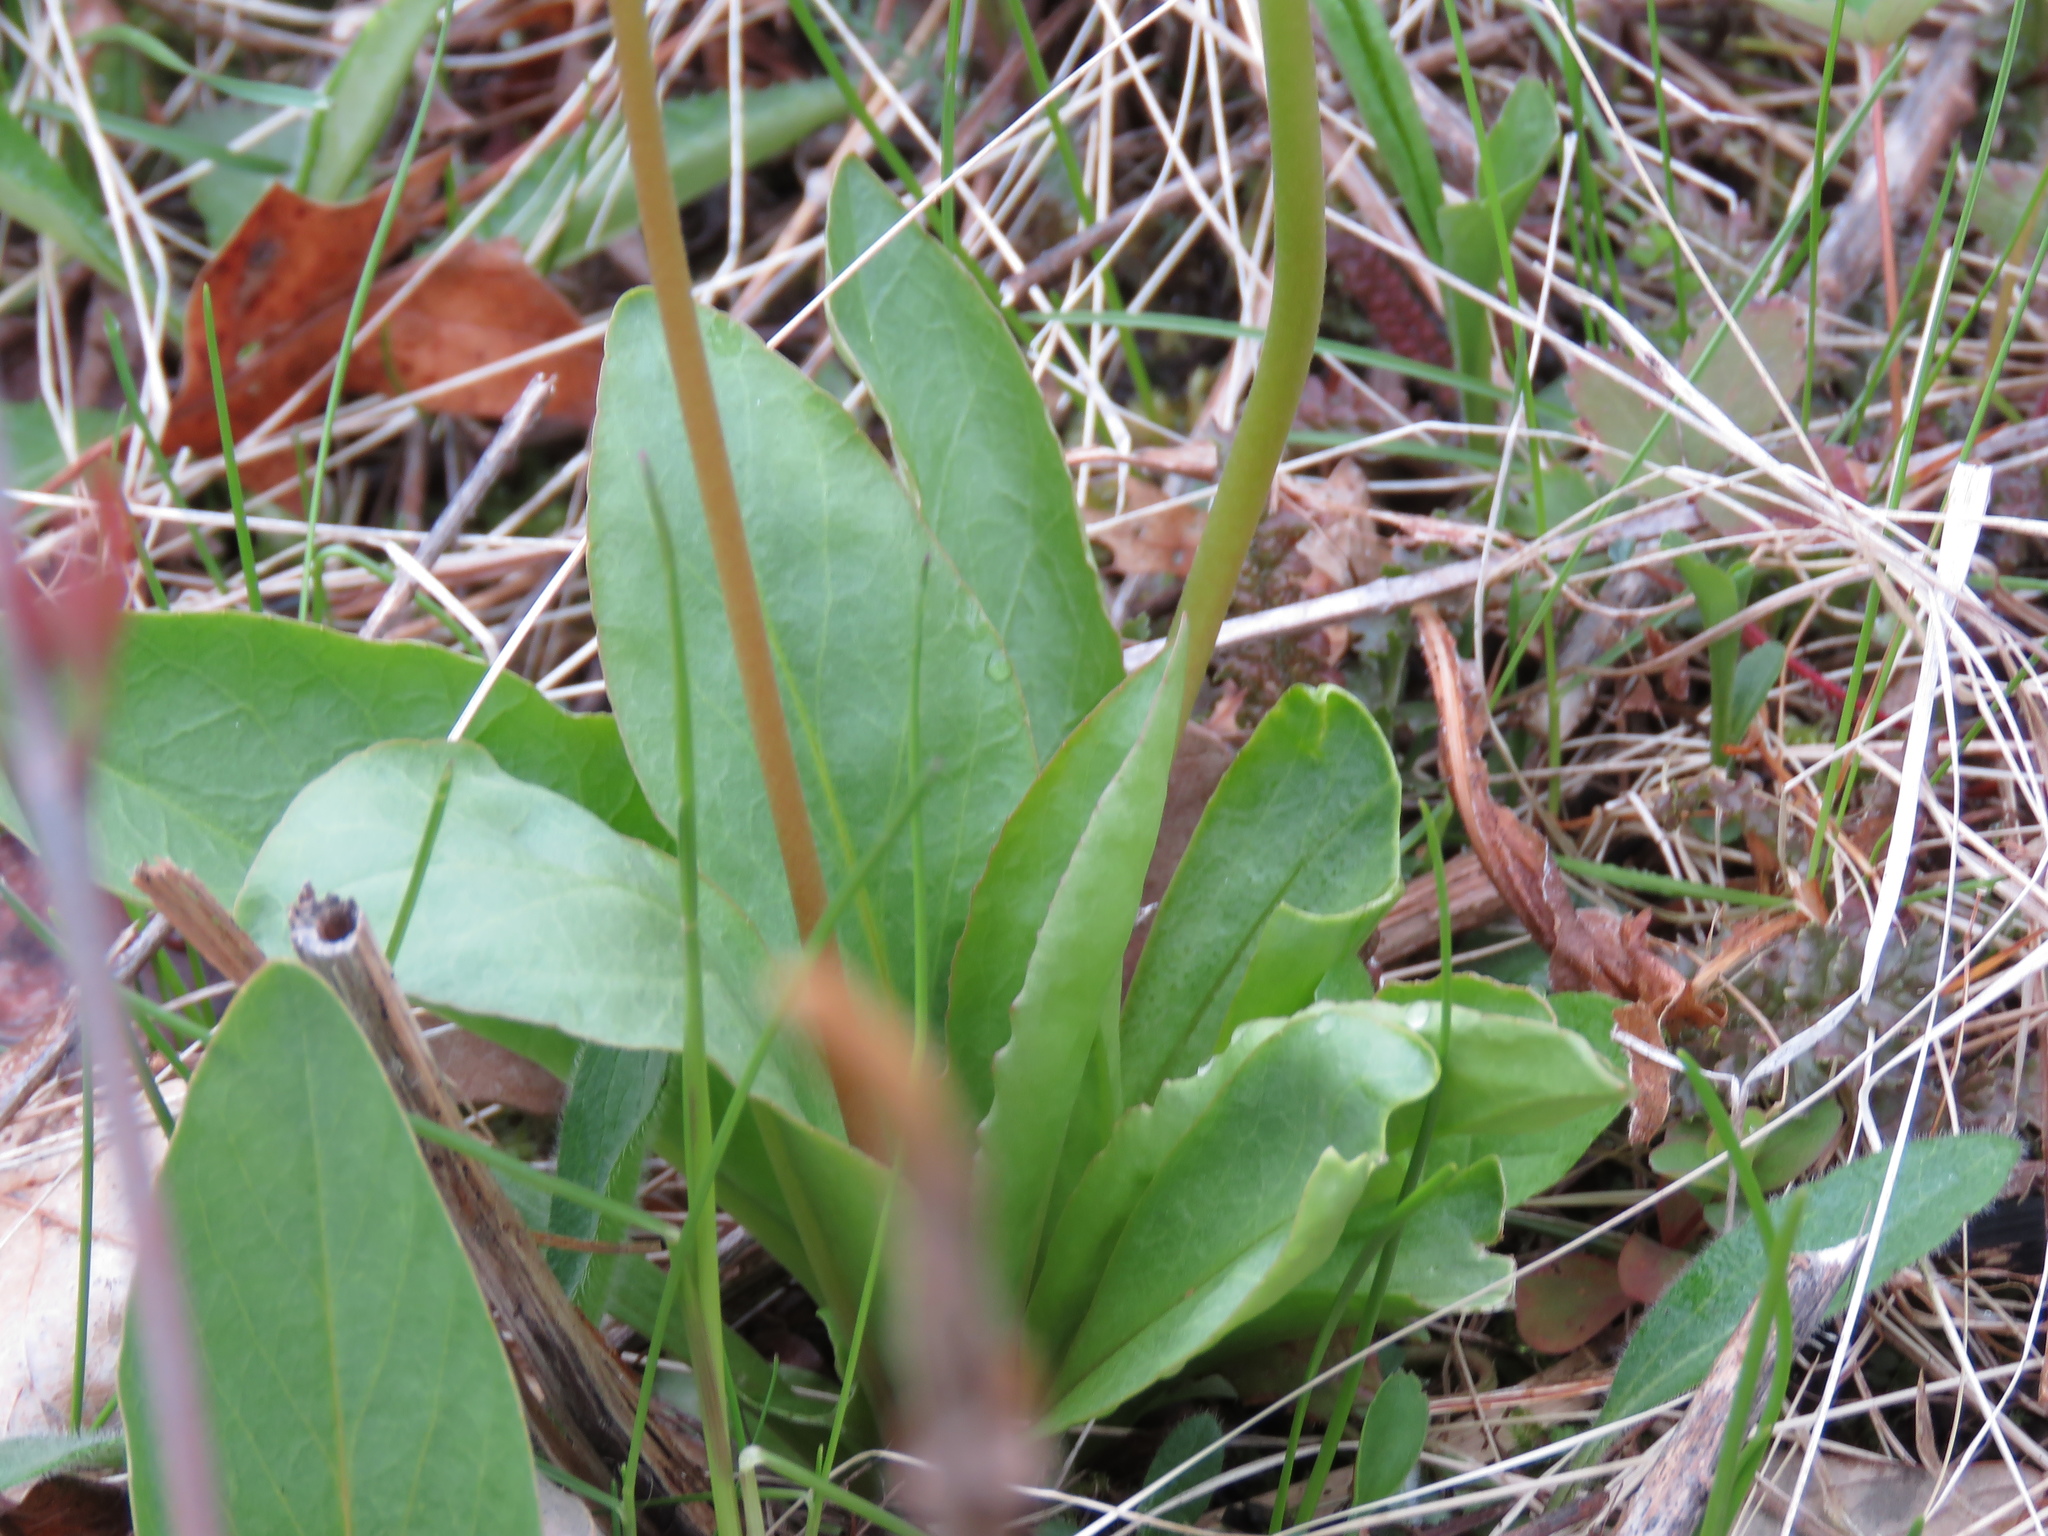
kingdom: Plantae
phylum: Tracheophyta
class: Magnoliopsida
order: Ericales
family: Primulaceae
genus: Dodecatheon
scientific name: Dodecatheon meadia
